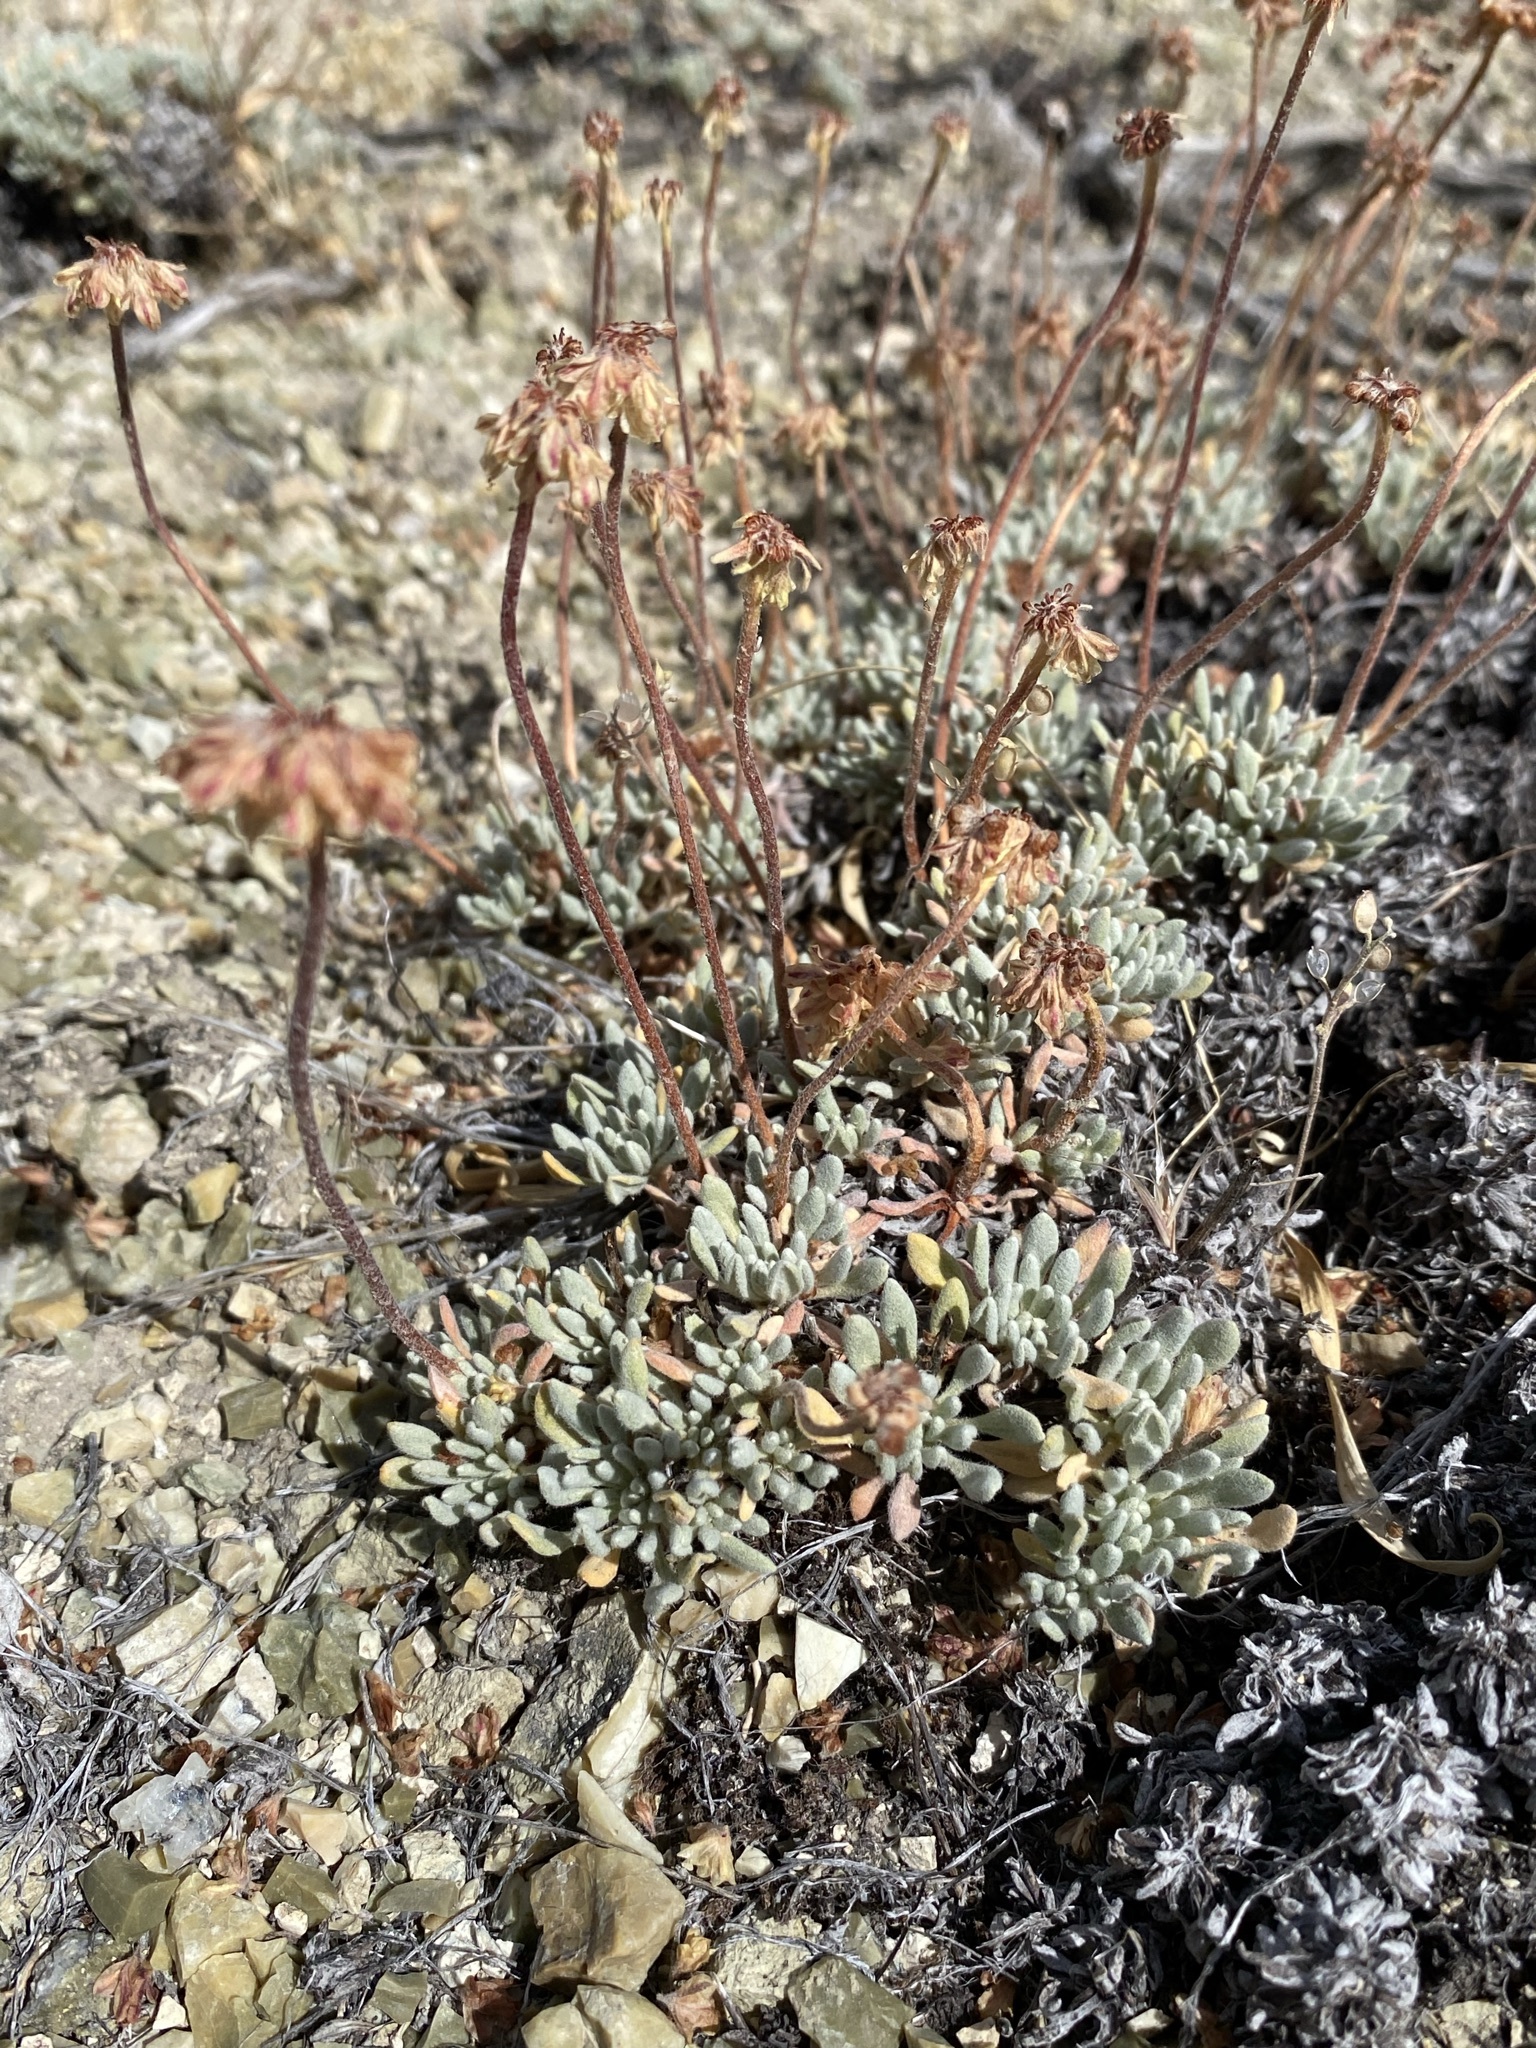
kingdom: Plantae
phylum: Tracheophyta
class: Magnoliopsida
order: Caryophyllales
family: Polygonaceae
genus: Eriogonum
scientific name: Eriogonum caespitosum
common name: Matted wild buckwheat
